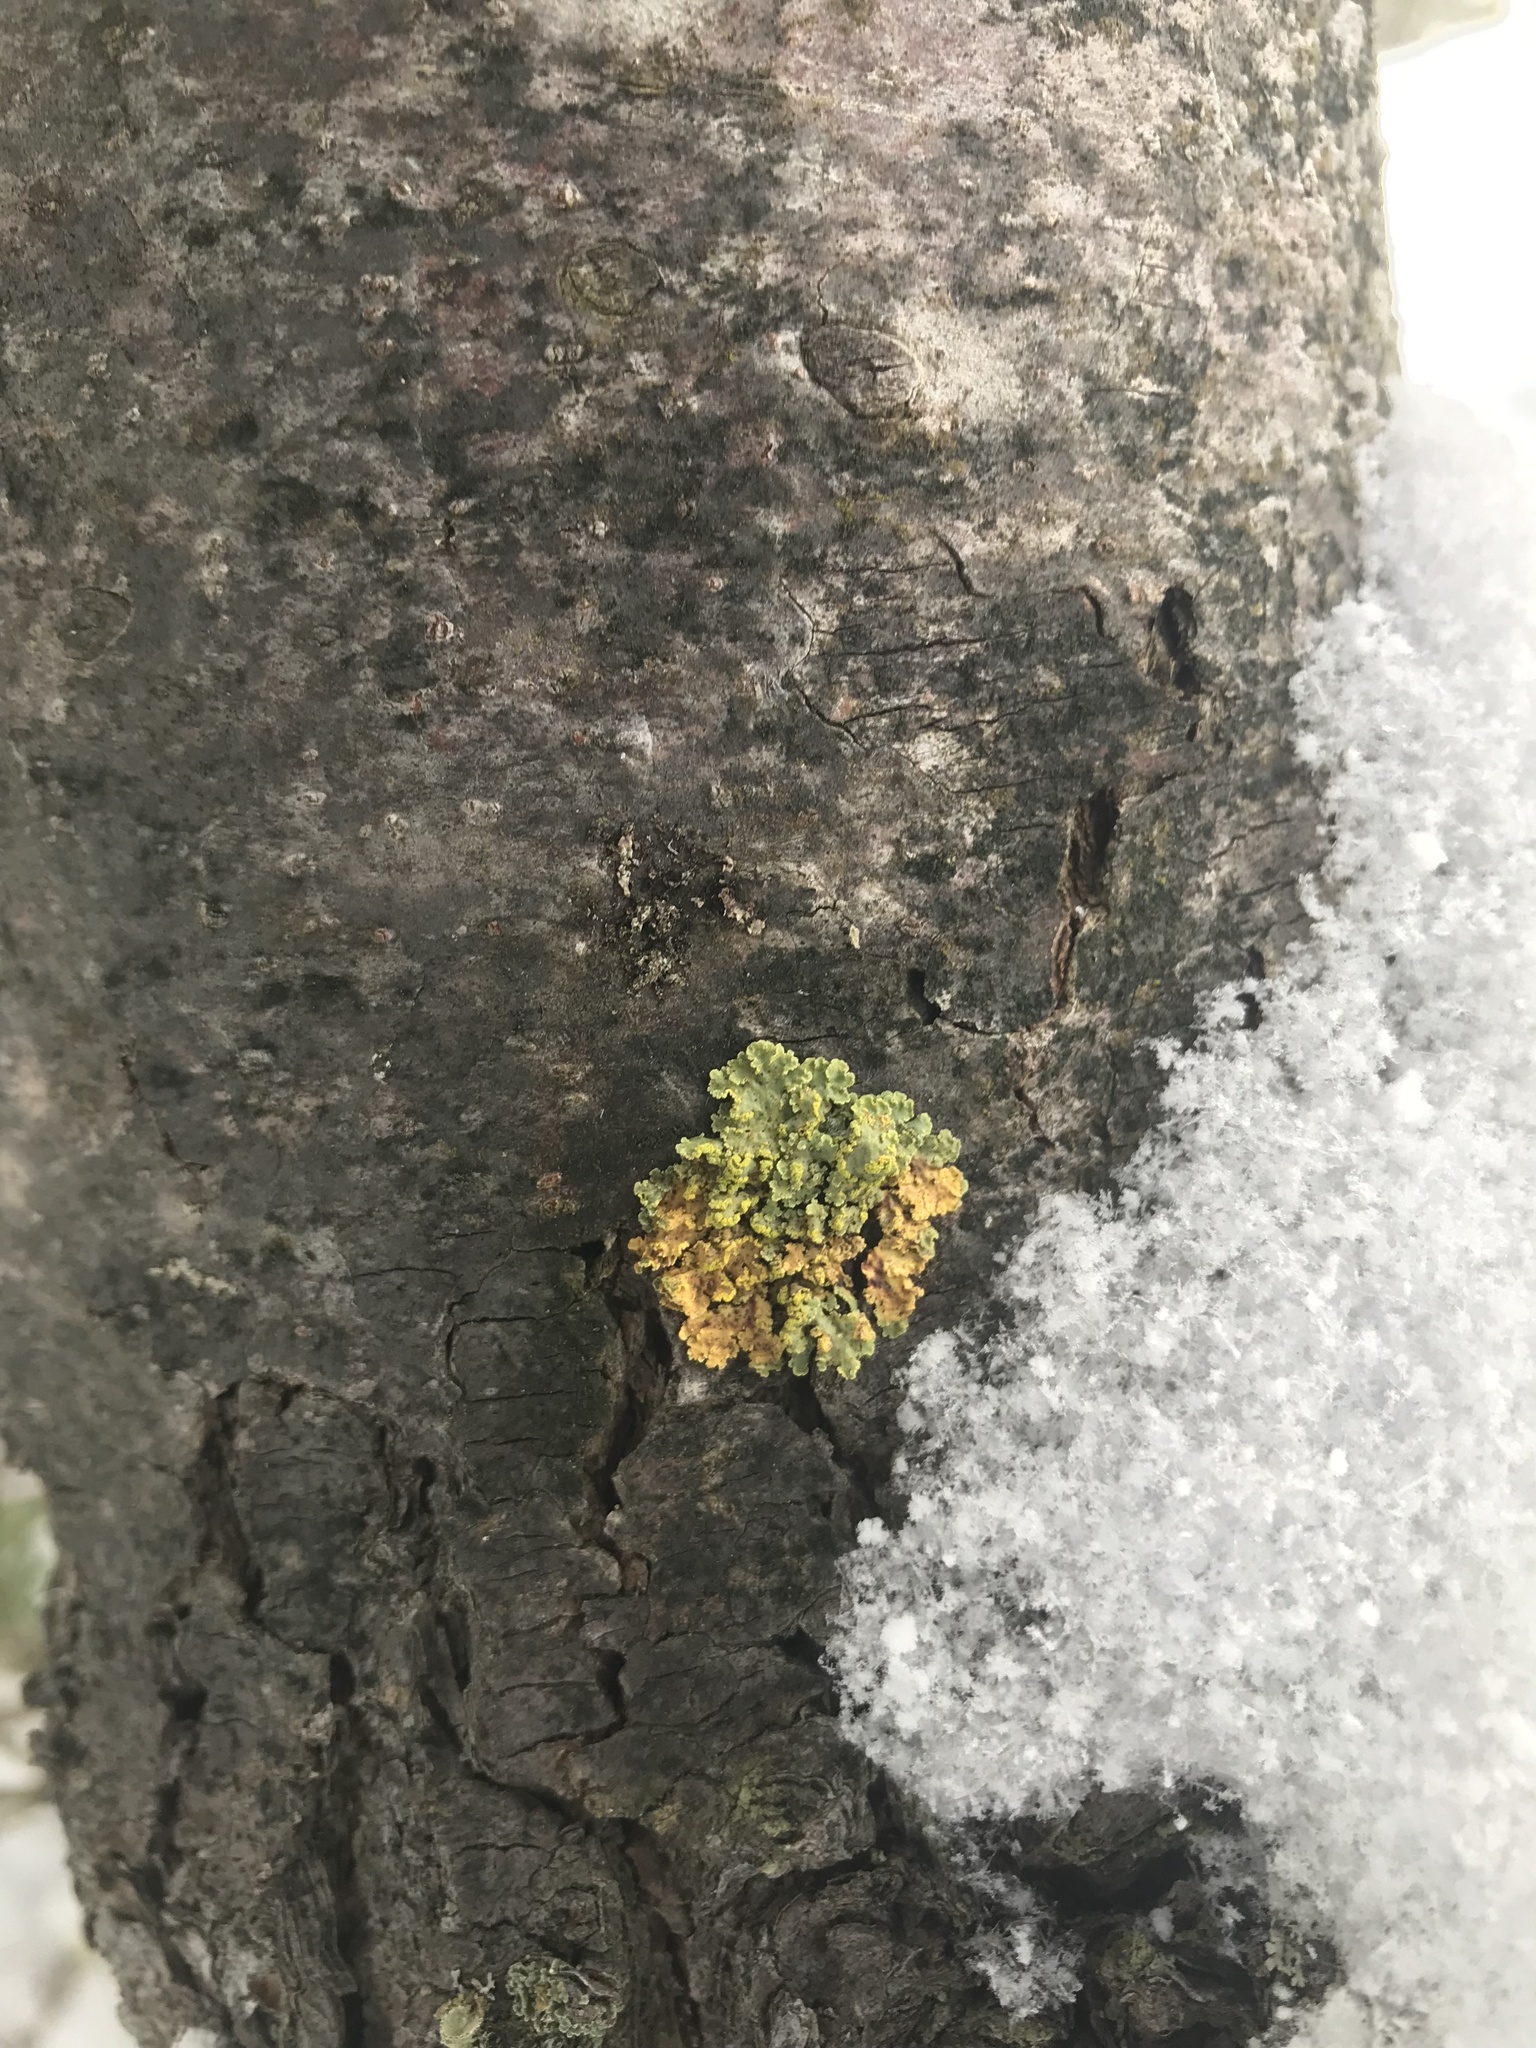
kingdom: Fungi
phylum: Ascomycota
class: Lecanoromycetes
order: Lecanorales
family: Parmeliaceae
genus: Vulpicida
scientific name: Vulpicida pinastri
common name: Powdered sunshine lichen
